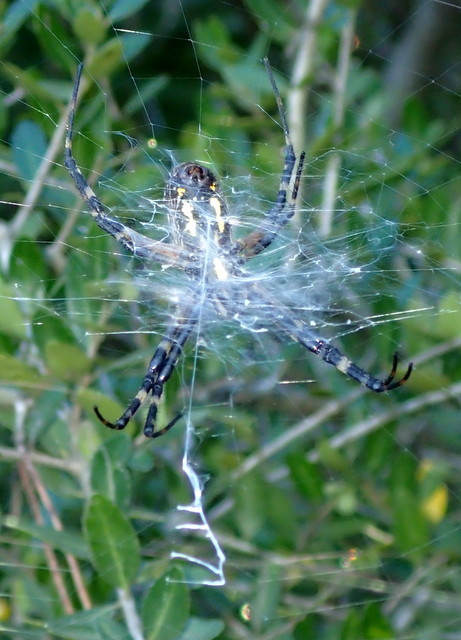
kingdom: Animalia
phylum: Arthropoda
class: Arachnida
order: Araneae
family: Araneidae
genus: Argiope
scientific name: Argiope aurantia
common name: Orb weavers
